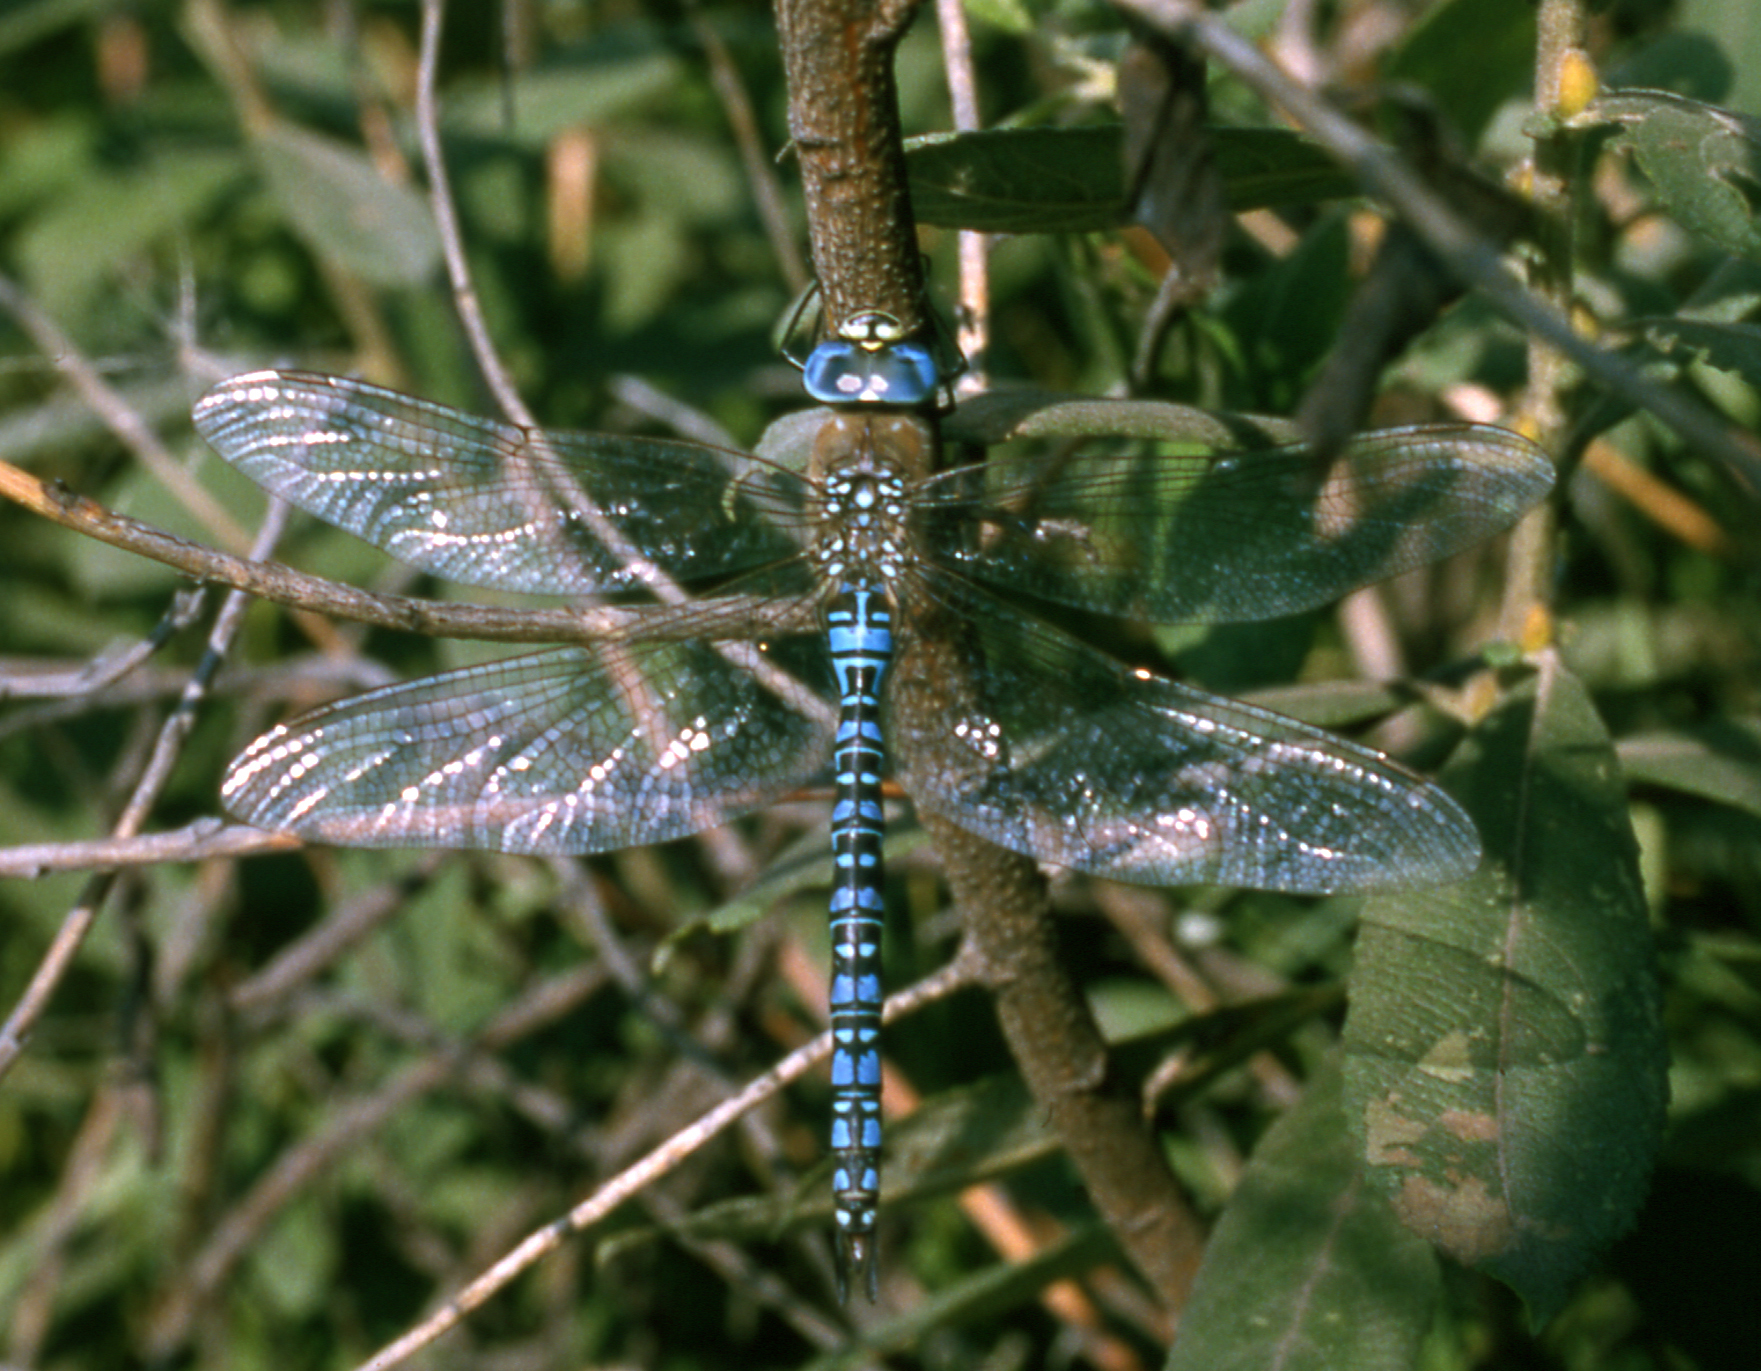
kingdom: Animalia
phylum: Arthropoda
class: Insecta
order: Odonata
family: Aeshnidae
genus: Aeshna
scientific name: Aeshna soneharai
